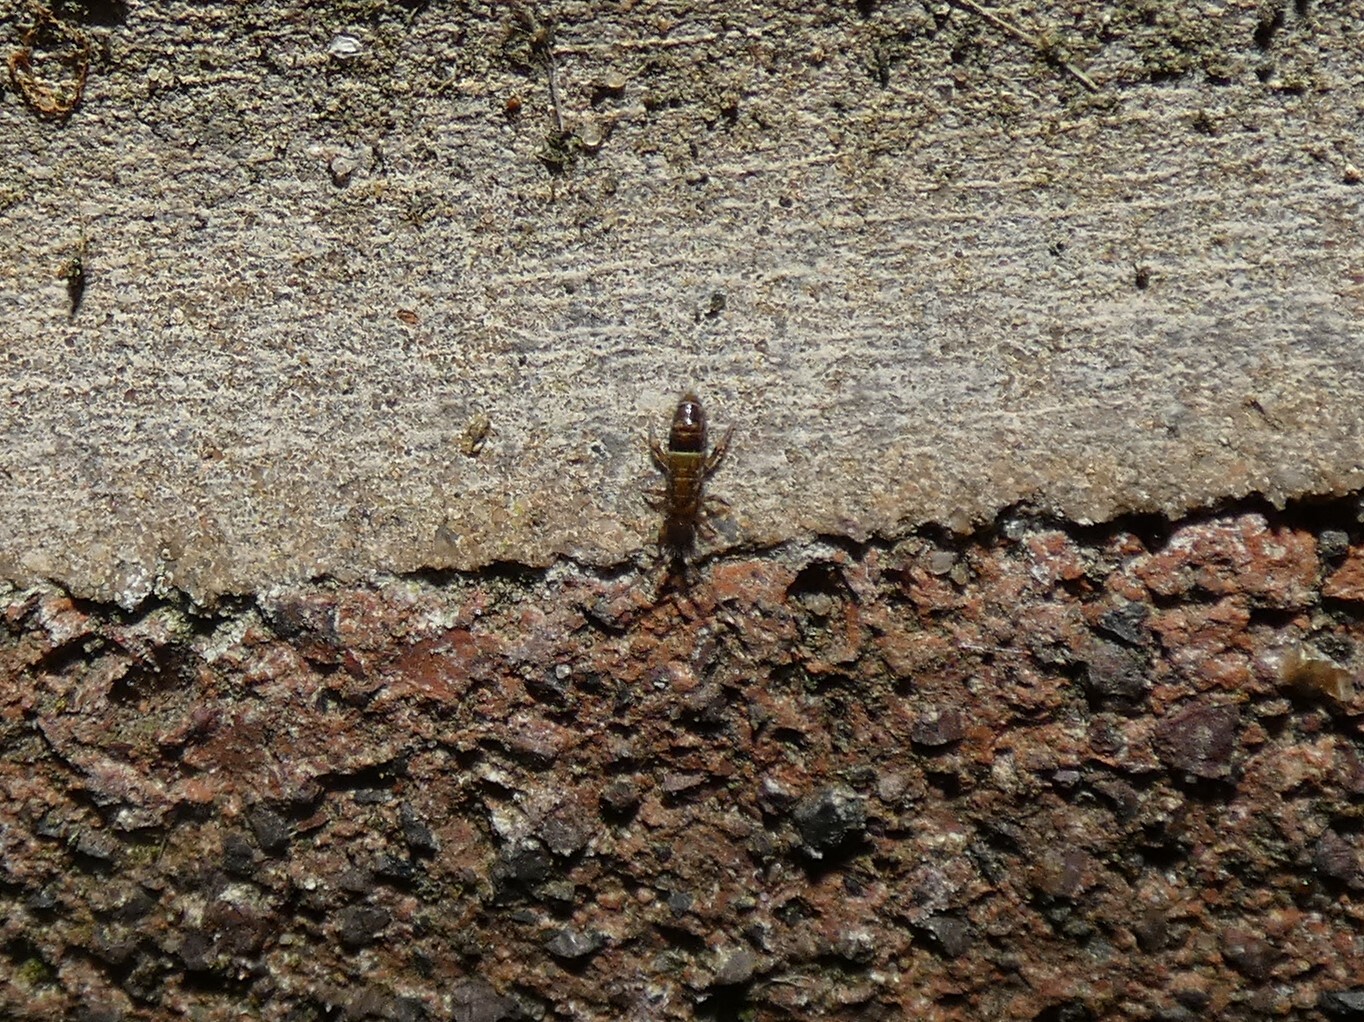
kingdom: Animalia
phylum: Arthropoda
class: Collembola
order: Entomobryomorpha
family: Orchesellidae
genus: Orchesella
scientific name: Orchesella cincta
